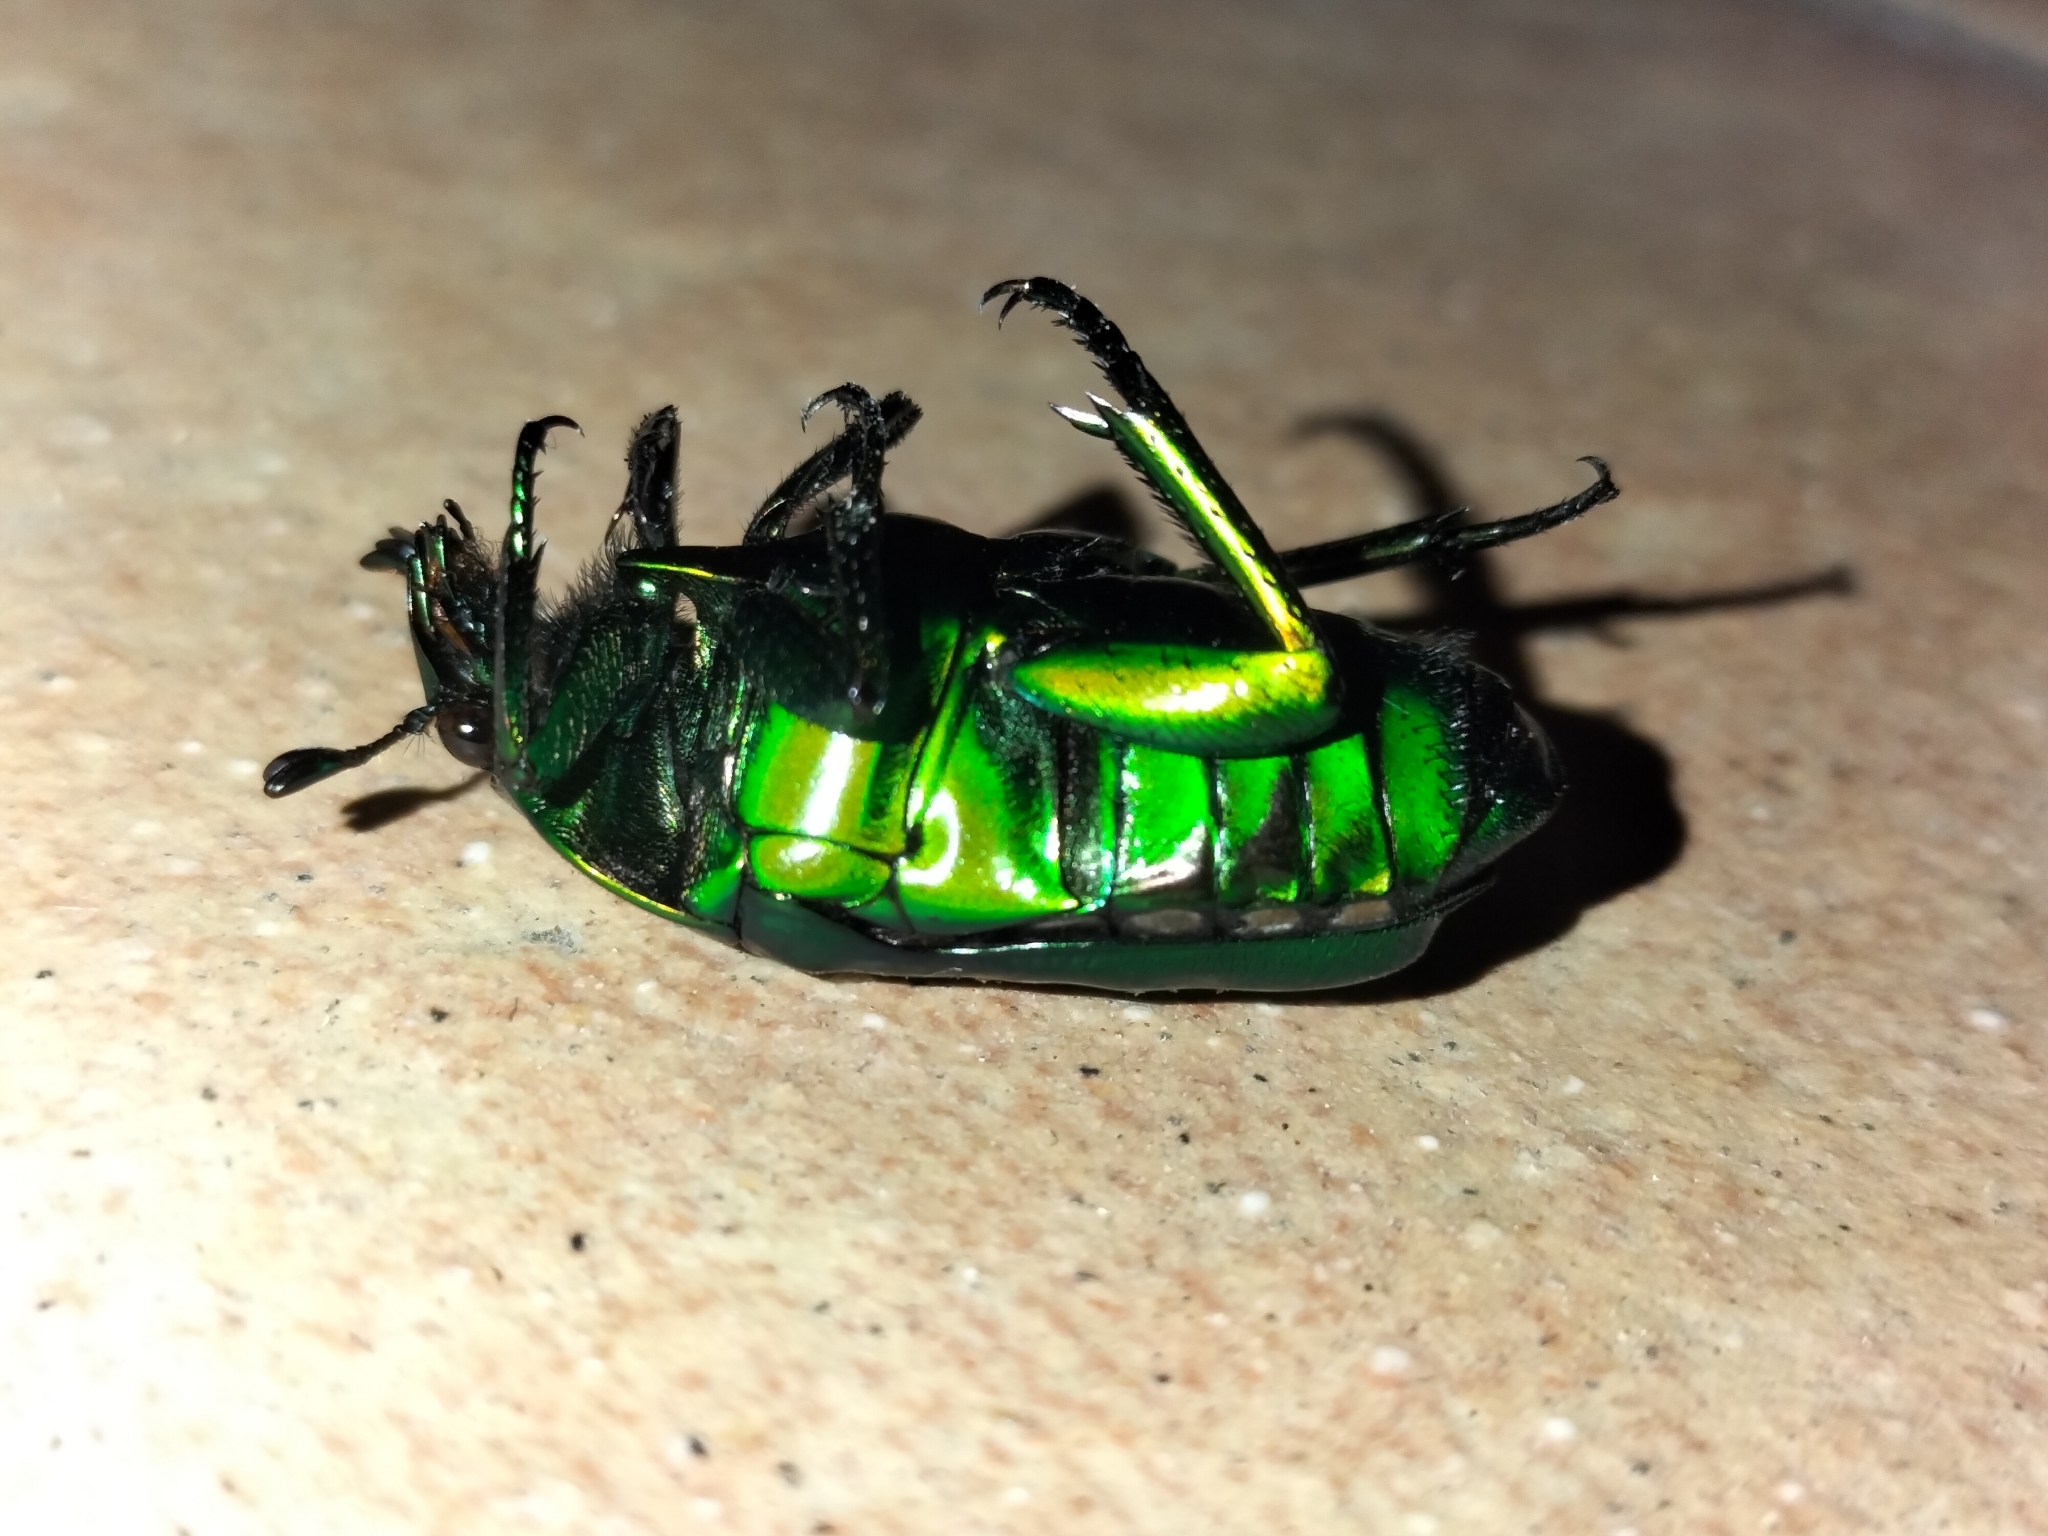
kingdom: Animalia
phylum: Arthropoda
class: Insecta
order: Coleoptera
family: Scarabaeidae
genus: Ischiopsopha
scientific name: Ischiopsopha wallacei
